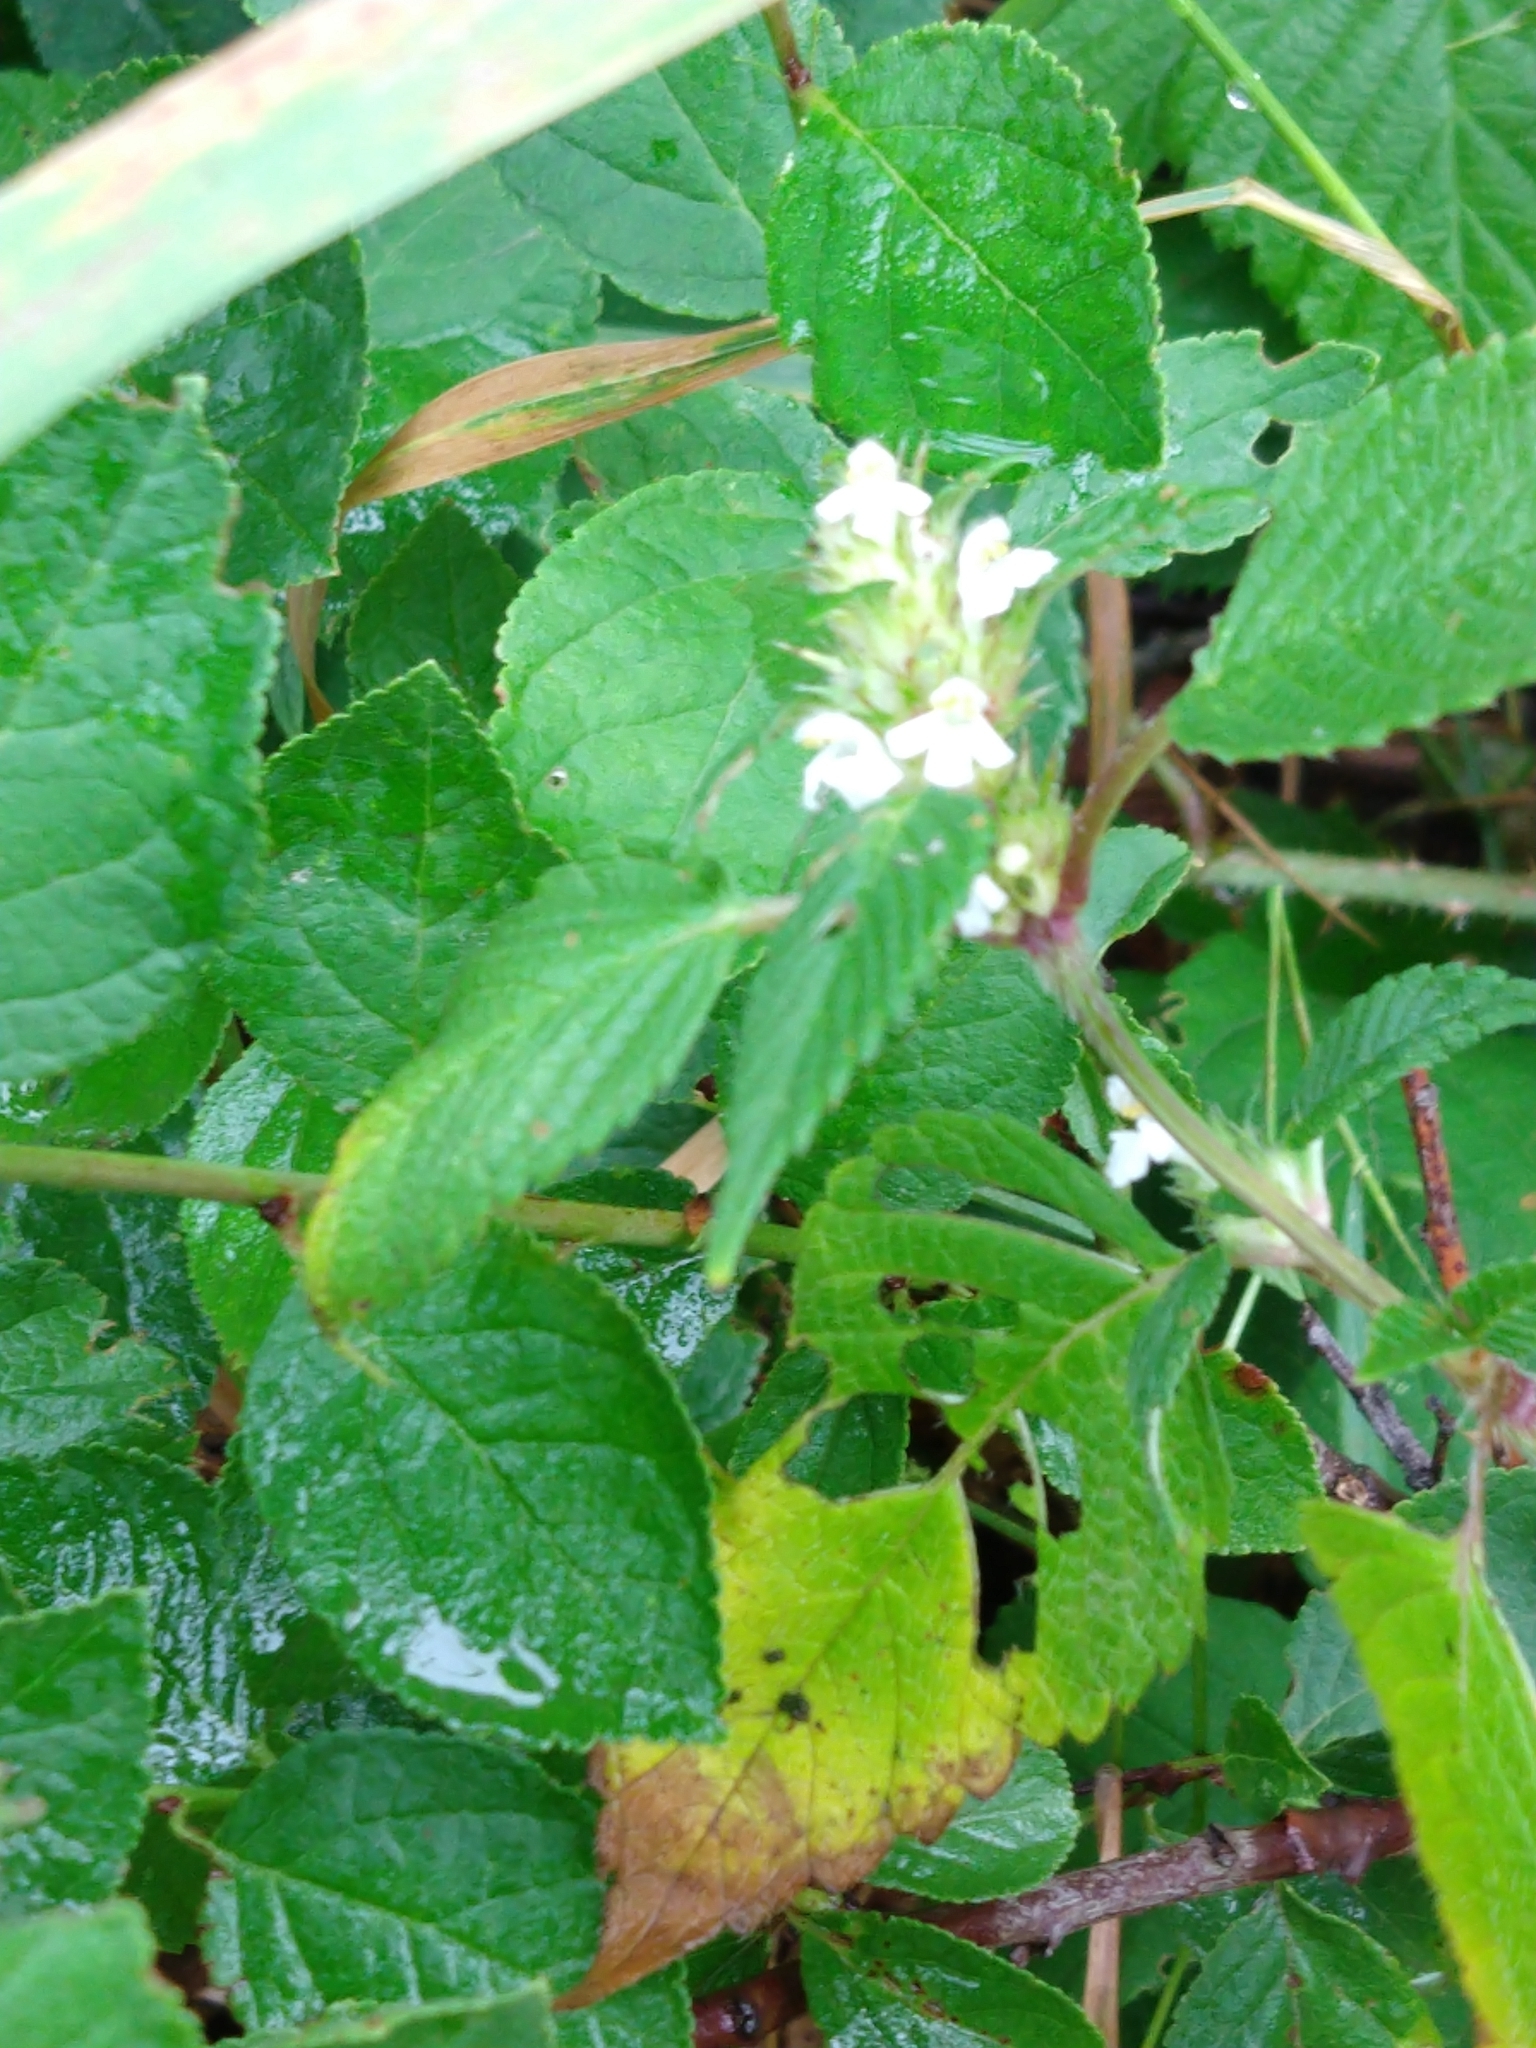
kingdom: Plantae
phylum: Tracheophyta
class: Magnoliopsida
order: Lamiales
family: Lamiaceae
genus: Galeopsis
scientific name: Galeopsis tetrahit
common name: Common hemp-nettle
